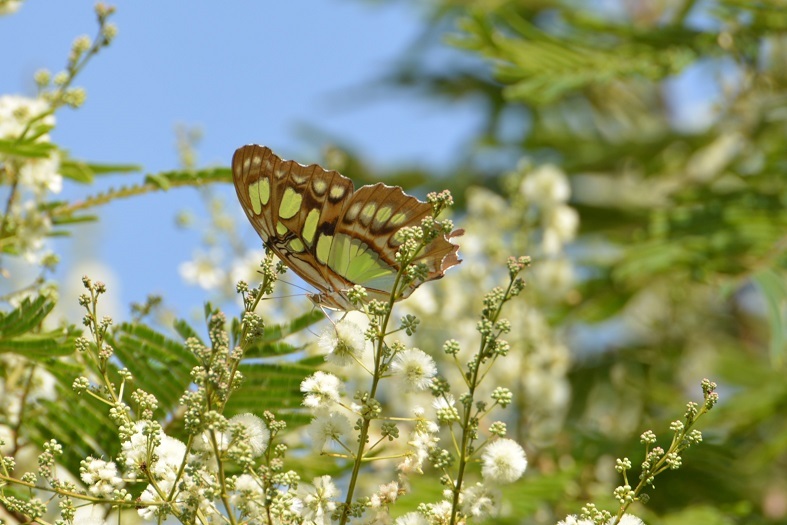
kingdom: Animalia
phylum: Arthropoda
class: Insecta
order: Lepidoptera
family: Nymphalidae
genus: Siproeta
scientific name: Siproeta stelenes
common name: Malachite
